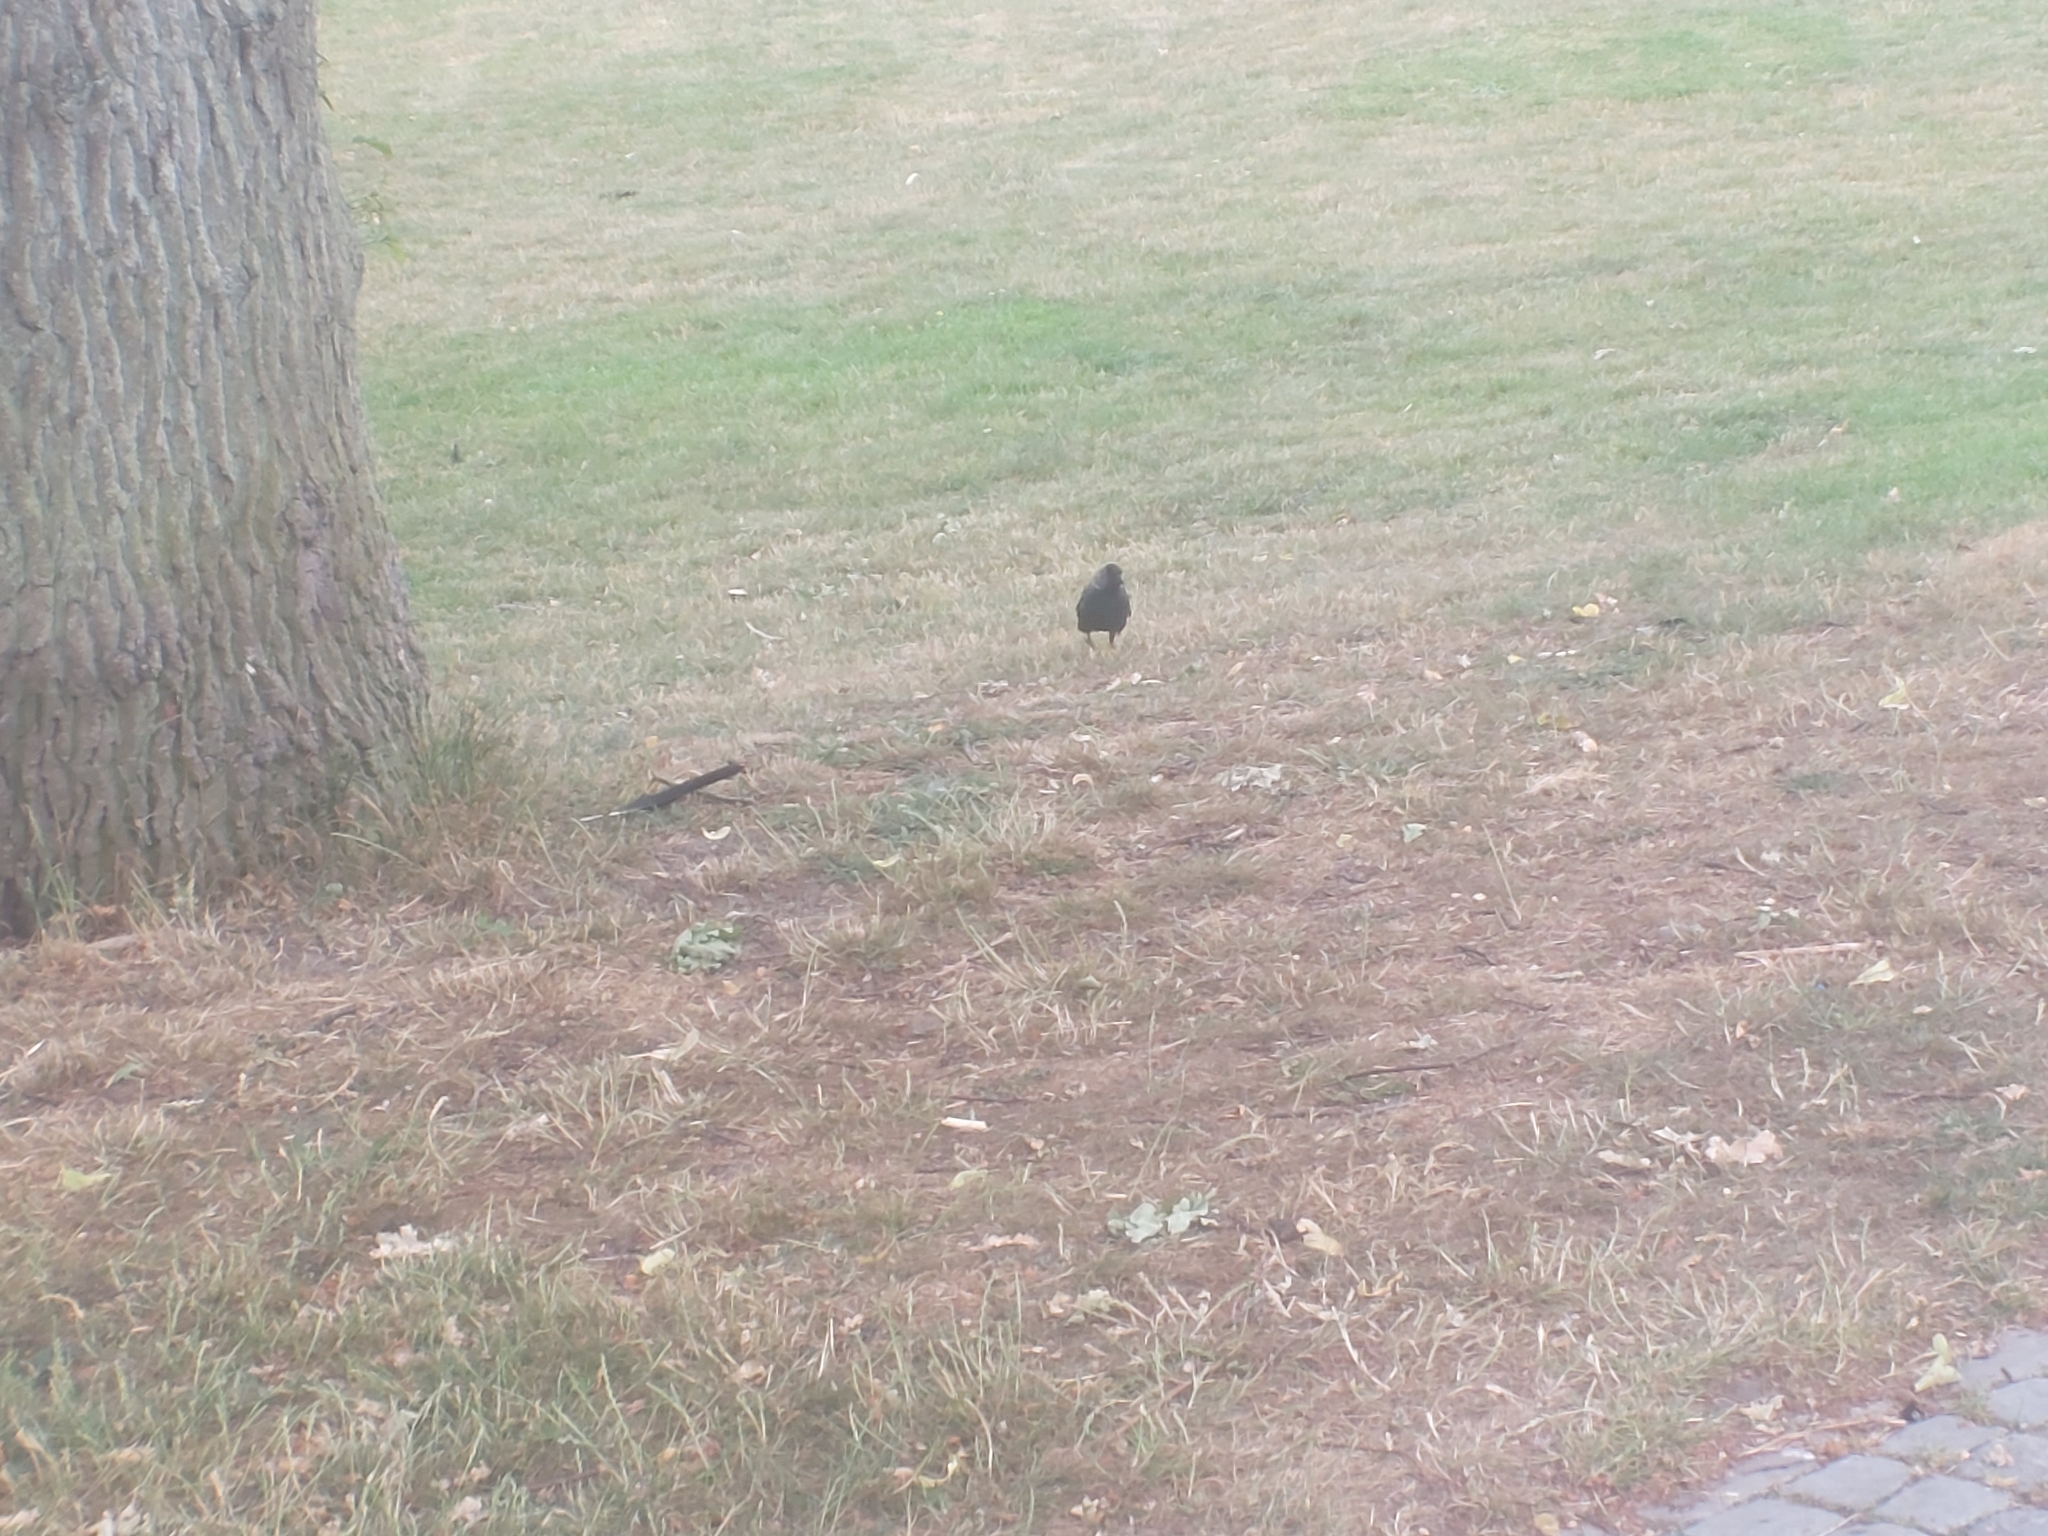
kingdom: Animalia
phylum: Chordata
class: Aves
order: Passeriformes
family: Corvidae
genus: Coloeus
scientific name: Coloeus monedula
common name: Western jackdaw
